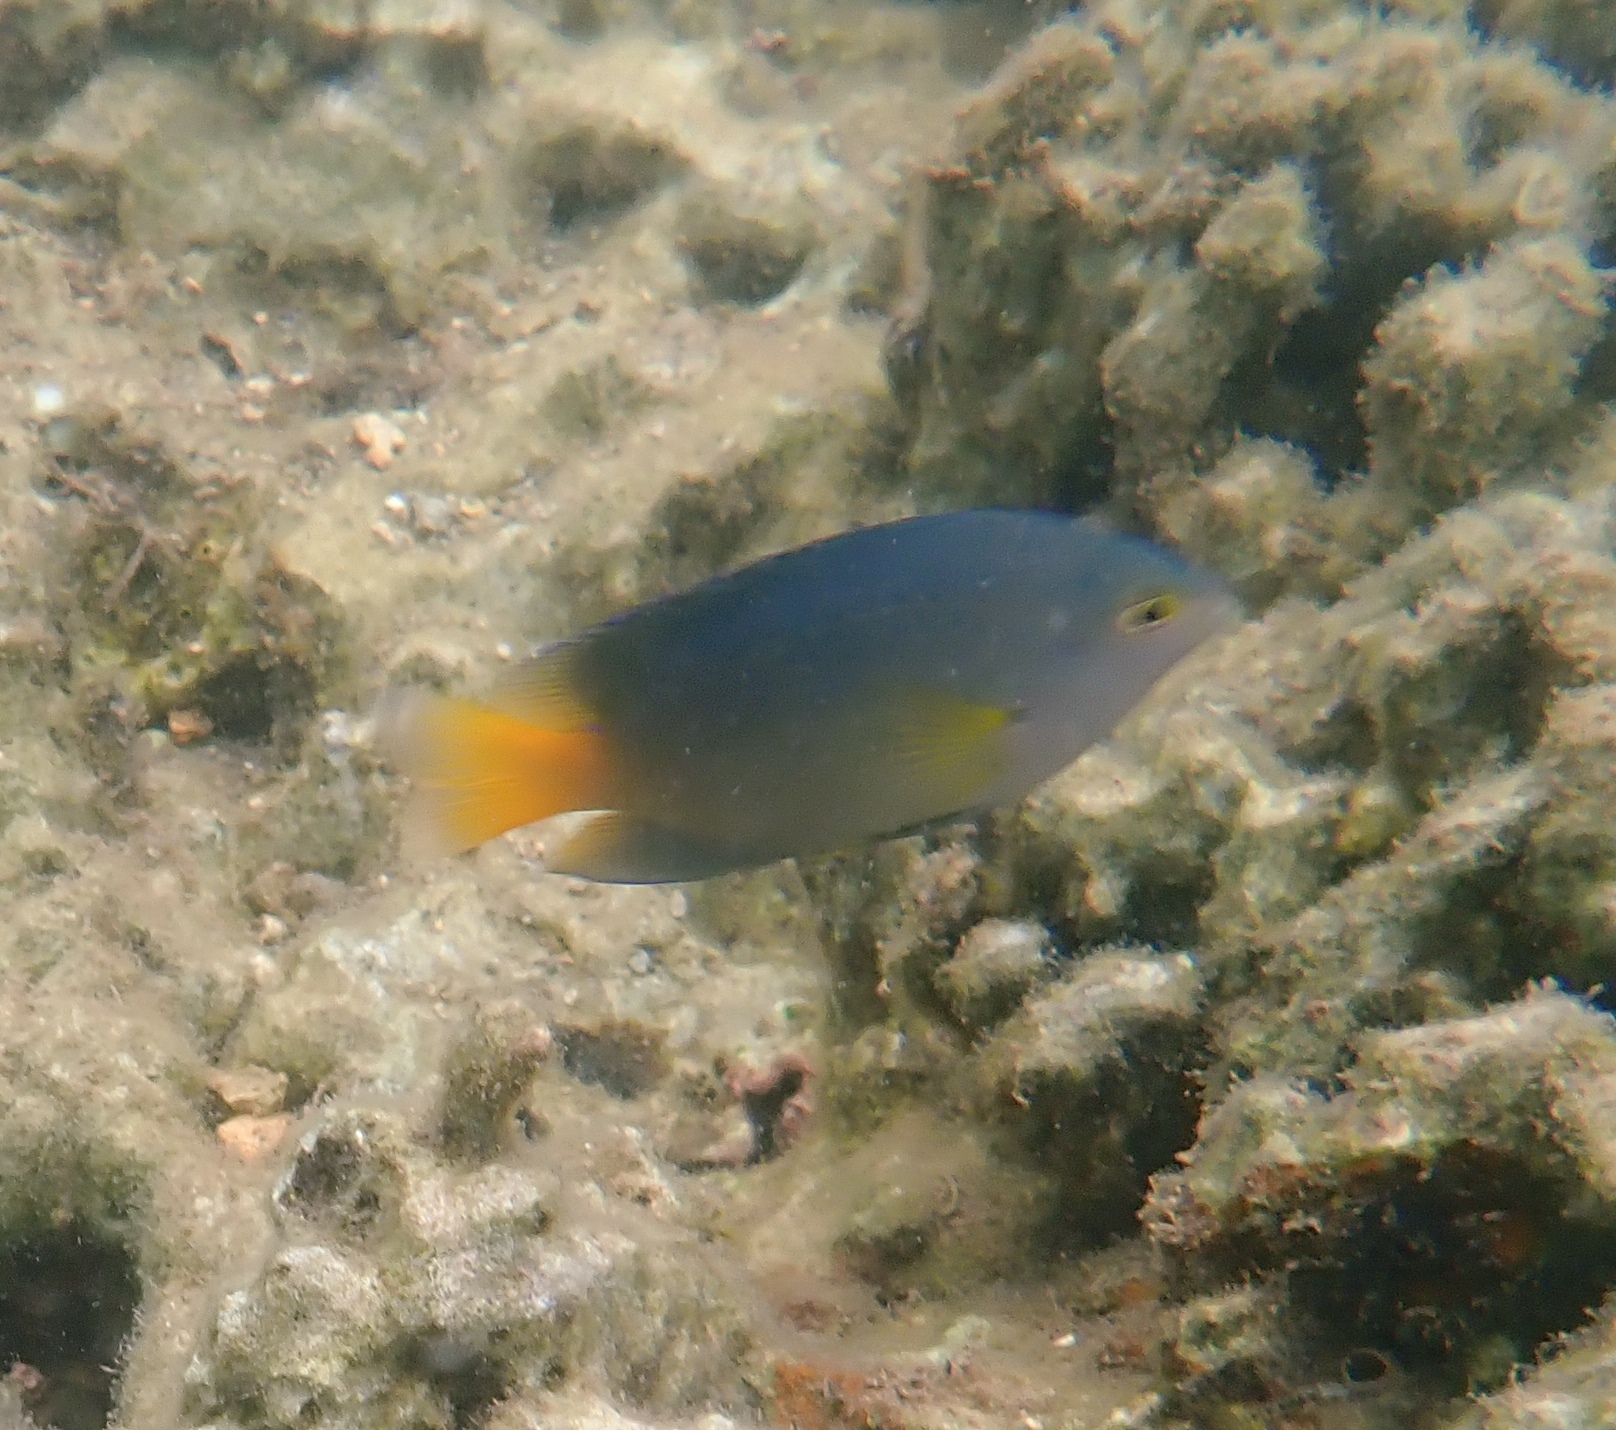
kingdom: Animalia
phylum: Chordata
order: Perciformes
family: Pomacentridae
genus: Pomacentrus
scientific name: Pomacentrus maafu
